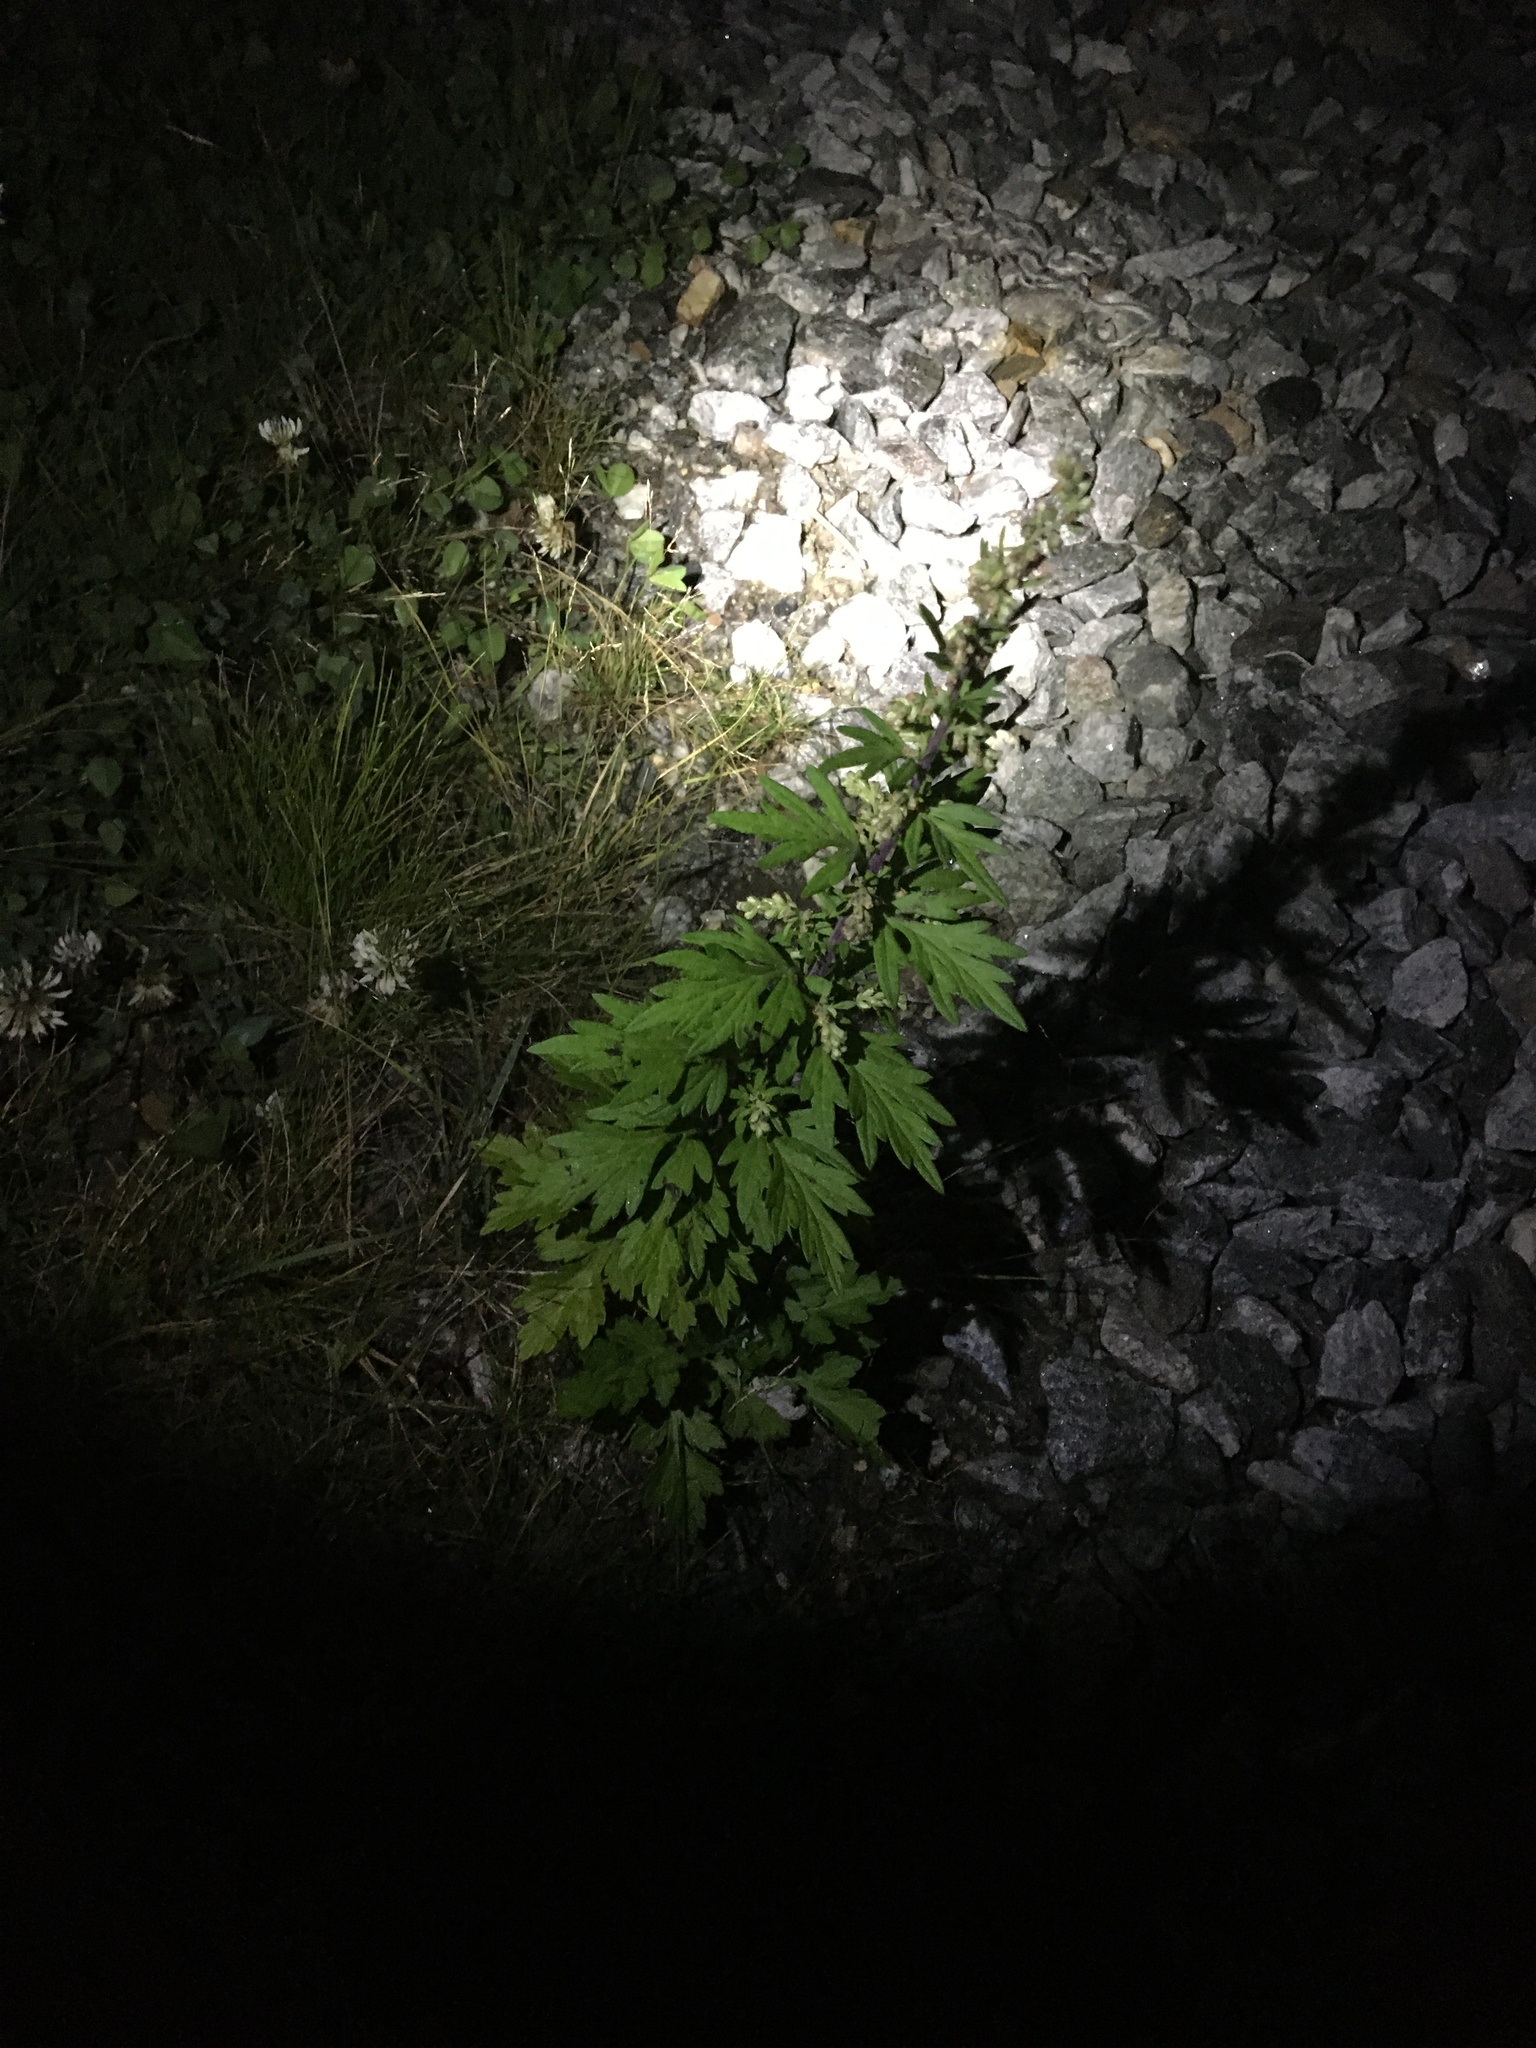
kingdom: Plantae
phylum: Tracheophyta
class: Magnoliopsida
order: Asterales
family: Asteraceae
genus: Artemisia
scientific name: Artemisia vulgaris
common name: Mugwort
